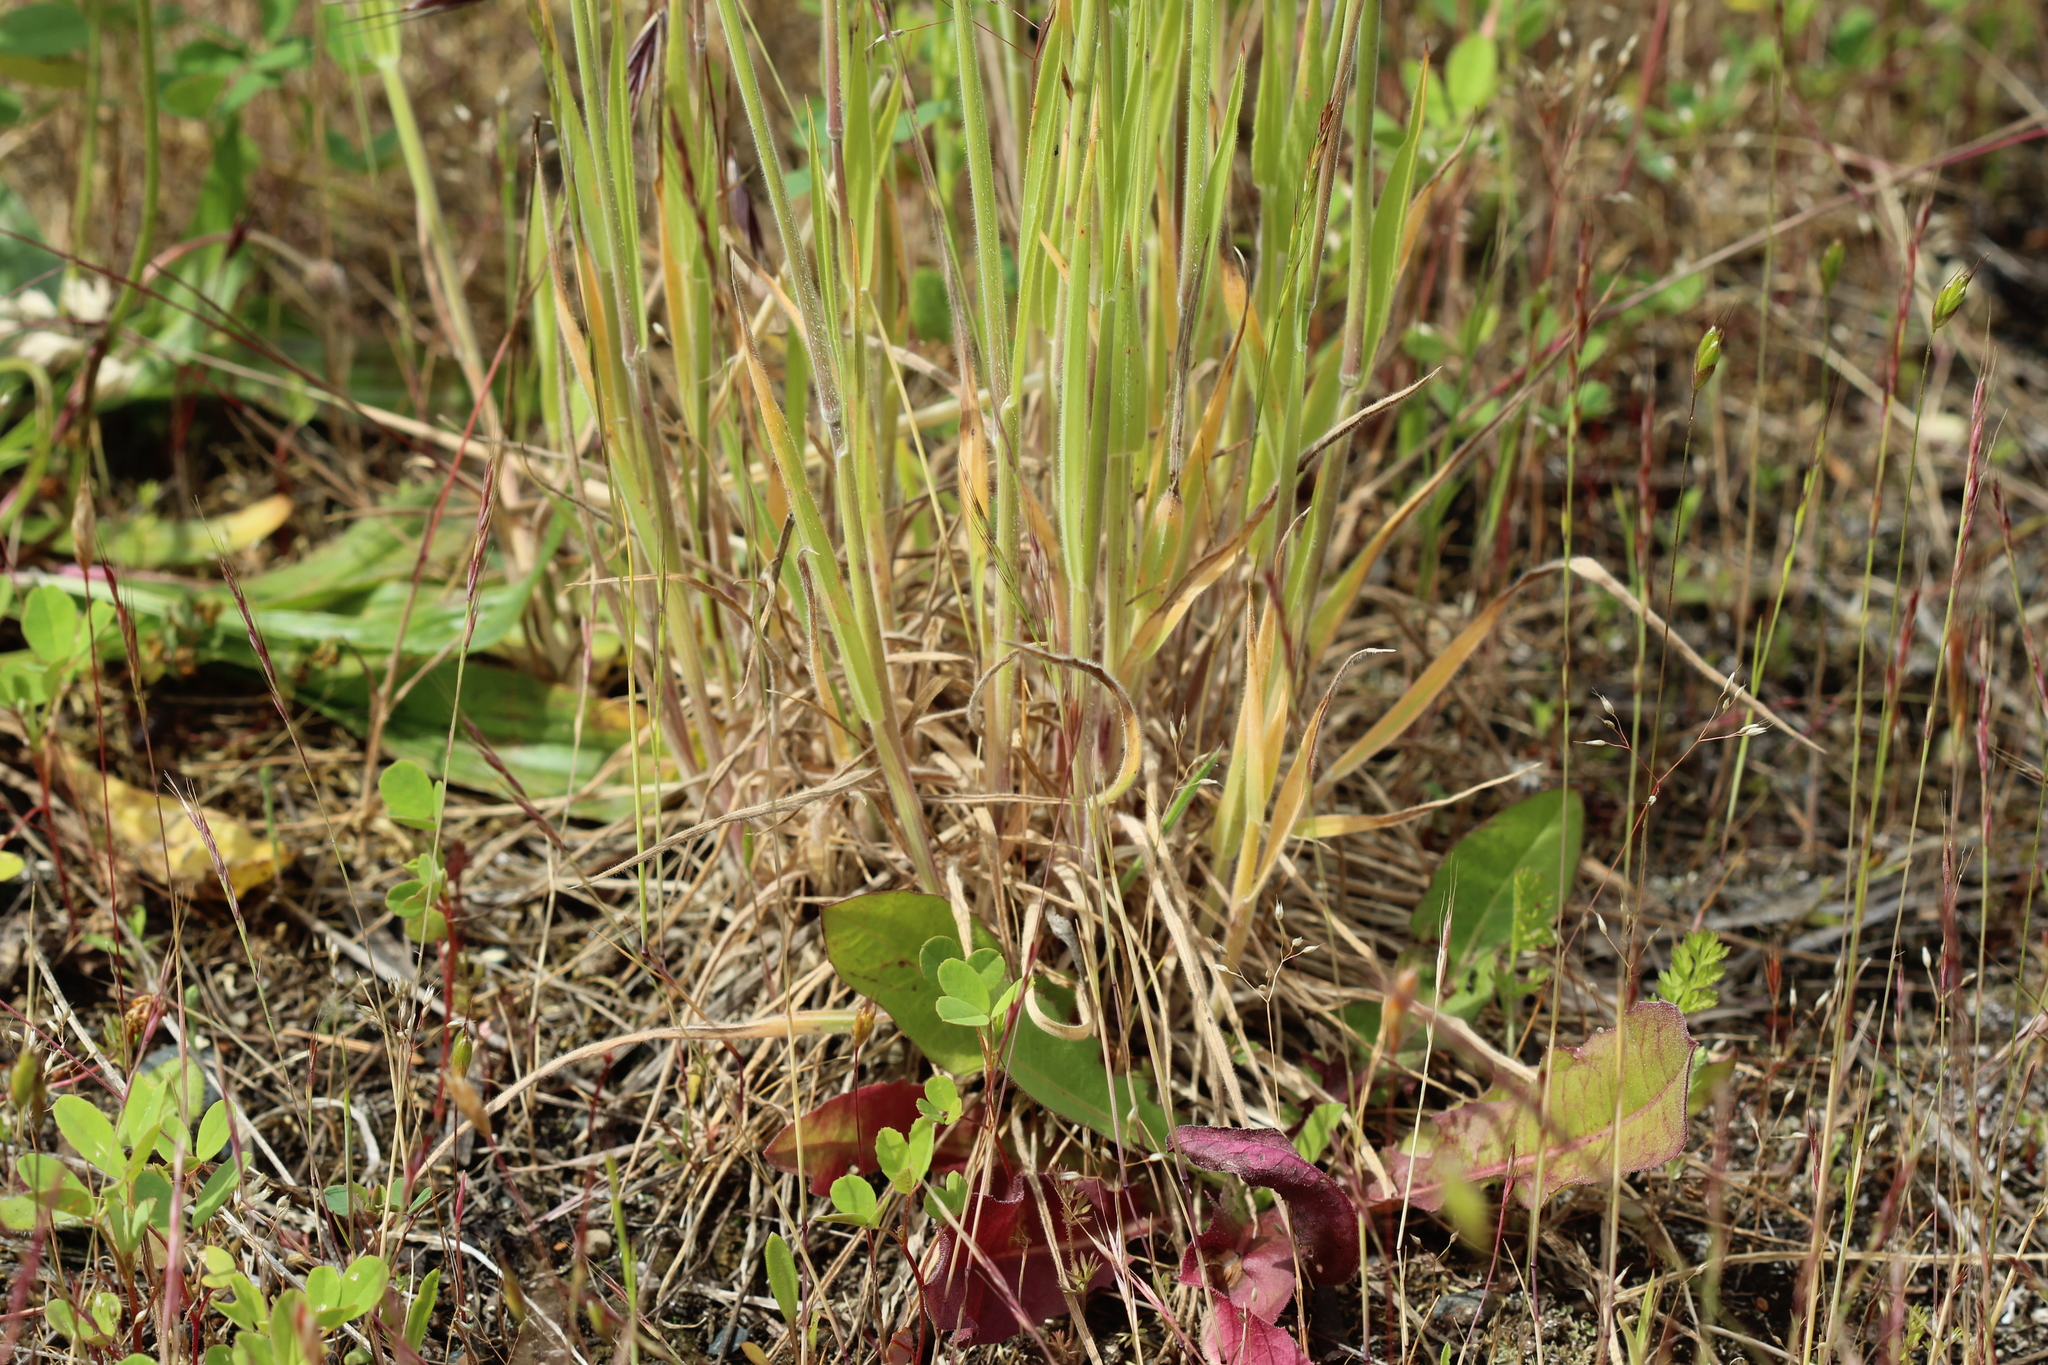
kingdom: Plantae
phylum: Tracheophyta
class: Liliopsida
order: Poales
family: Poaceae
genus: Holcus
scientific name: Holcus lanatus
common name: Yorkshire-fog
